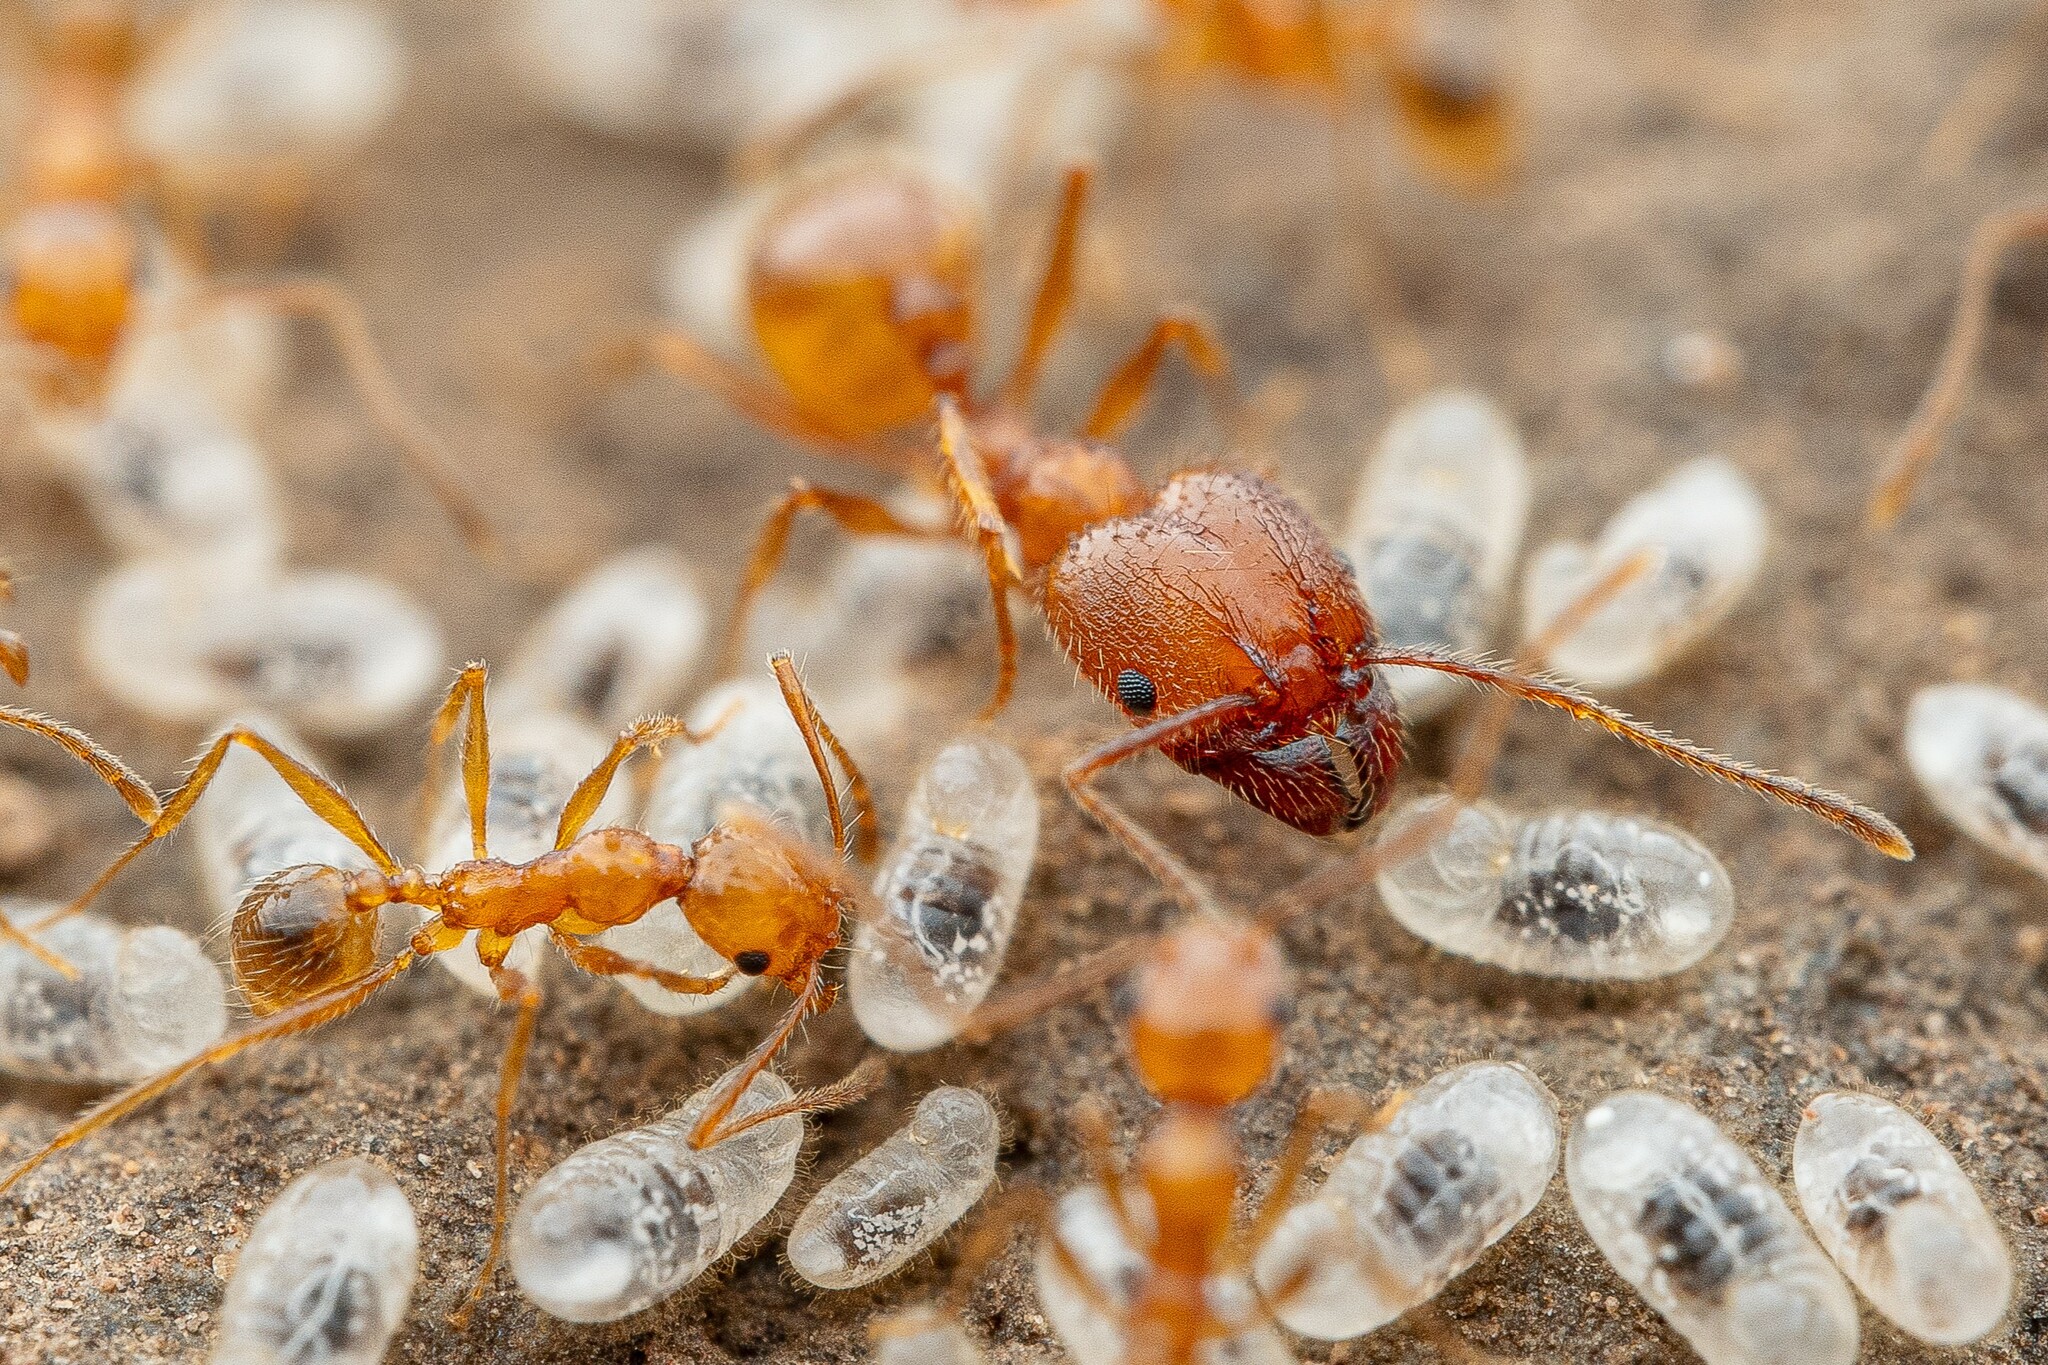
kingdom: Animalia
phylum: Arthropoda
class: Insecta
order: Hymenoptera
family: Formicidae
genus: Pheidole
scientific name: Pheidole hyatti
